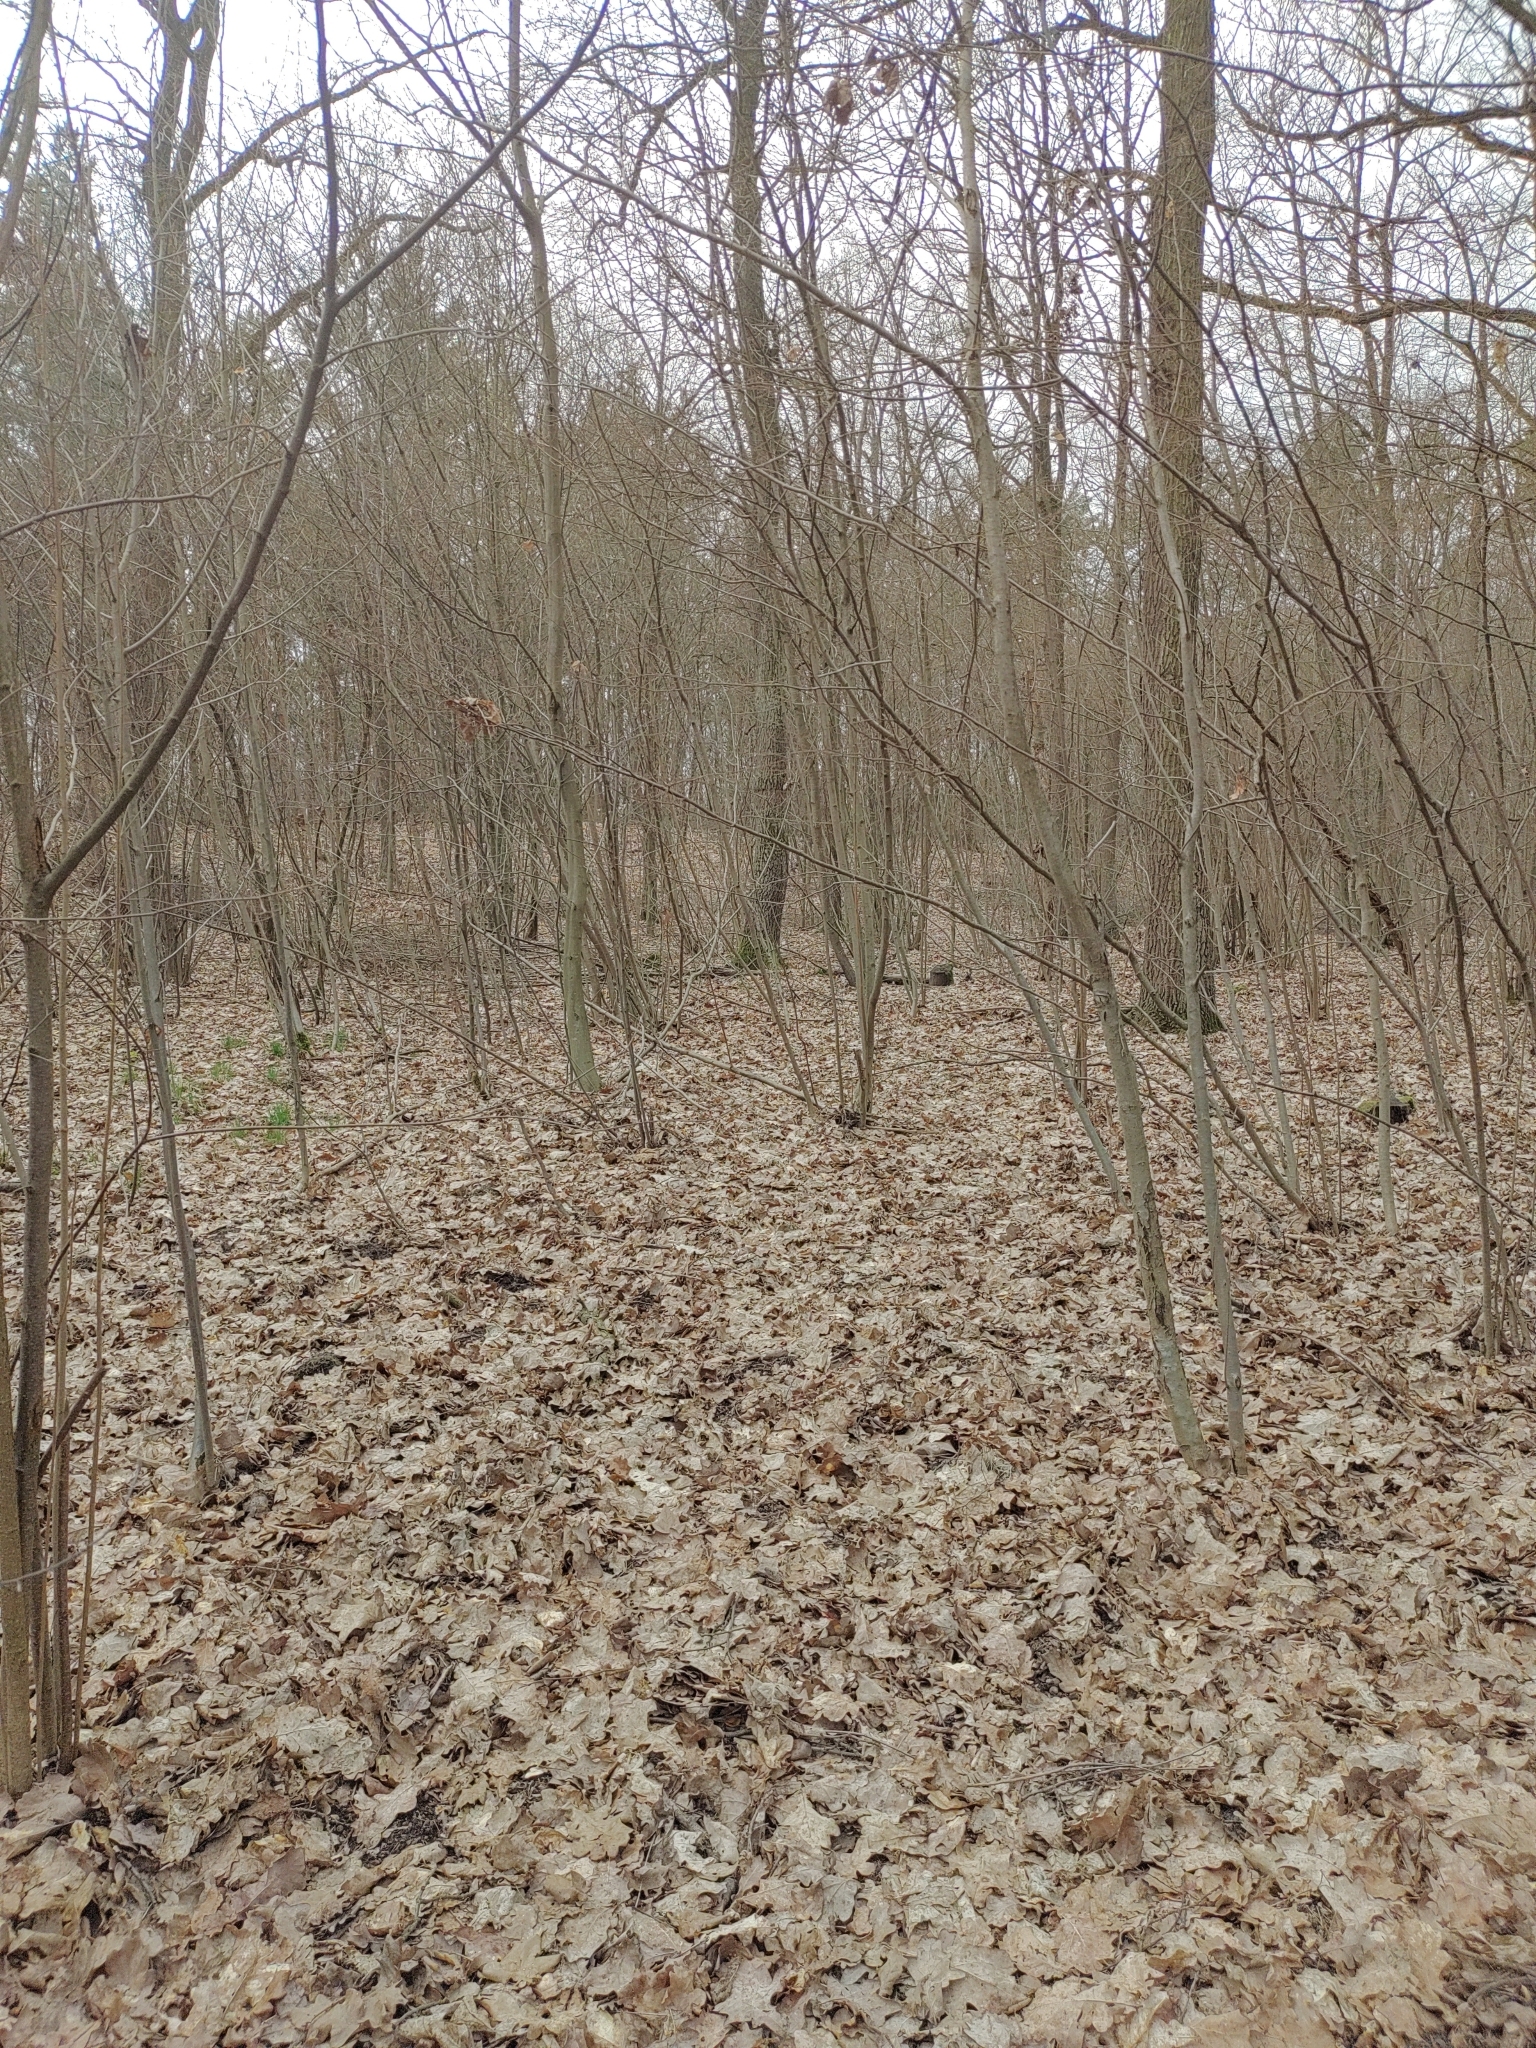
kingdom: Animalia
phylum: Chordata
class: Aves
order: Passeriformes
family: Fringillidae
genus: Pyrrhula
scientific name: Pyrrhula pyrrhula
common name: Eurasian bullfinch
